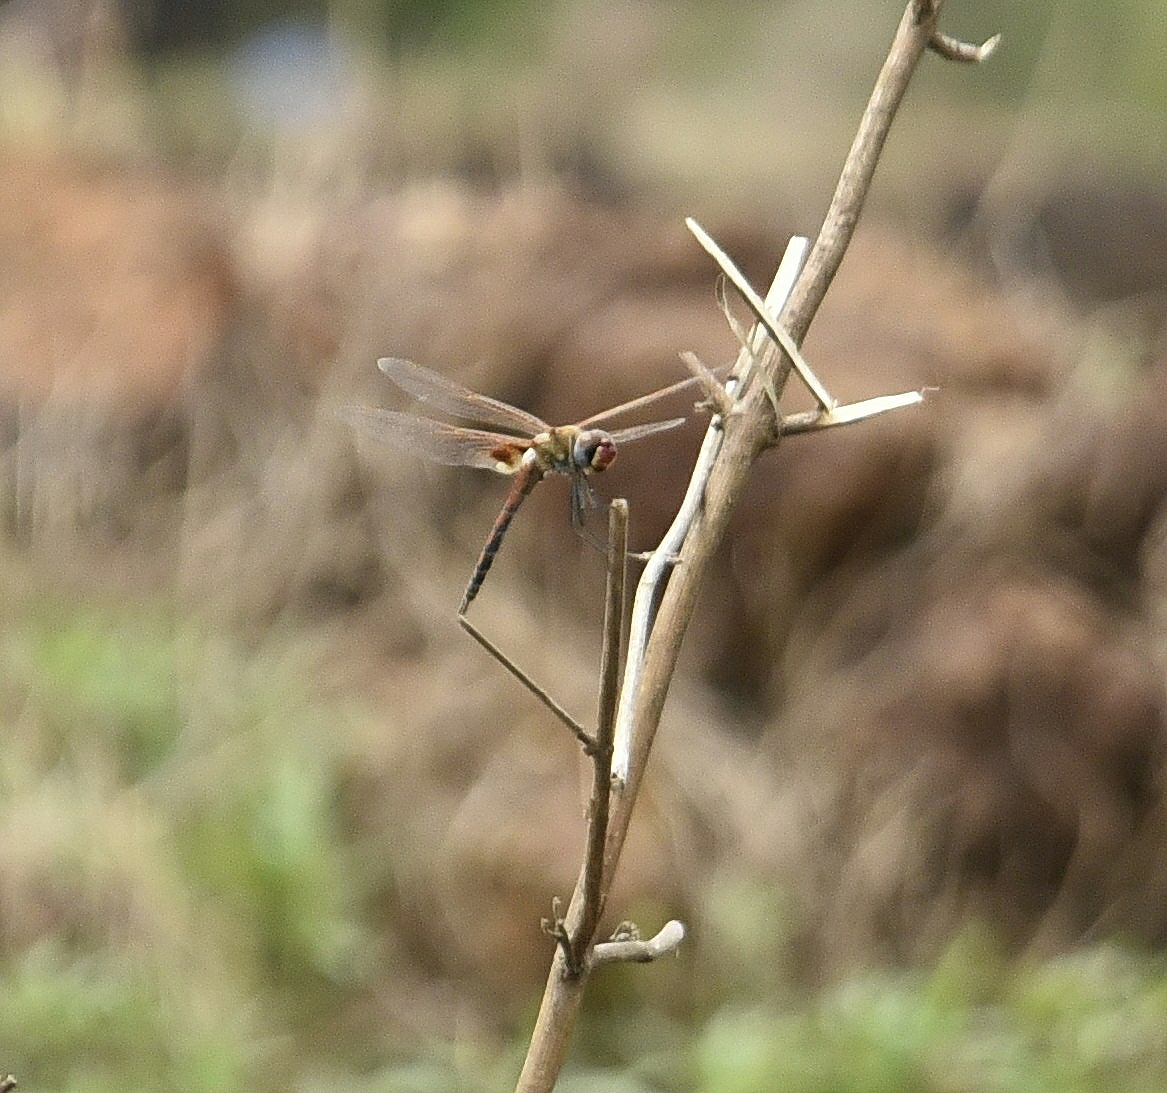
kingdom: Animalia
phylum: Arthropoda
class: Insecta
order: Odonata
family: Libellulidae
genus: Tramea
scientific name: Tramea basilaris
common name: Keyhole glider
